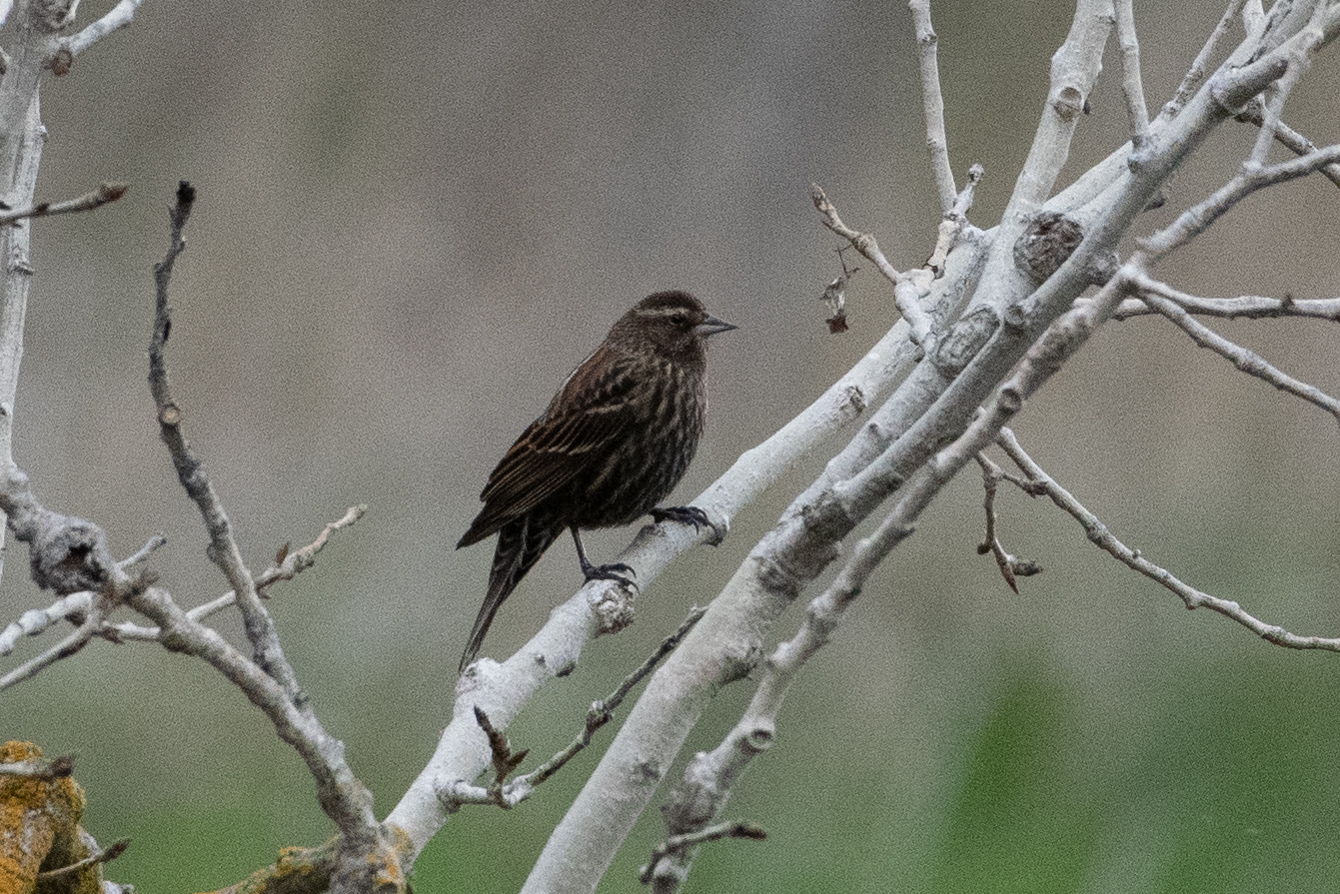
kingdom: Animalia
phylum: Chordata
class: Aves
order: Passeriformes
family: Icteridae
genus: Agelaius
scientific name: Agelaius phoeniceus
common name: Red-winged blackbird
